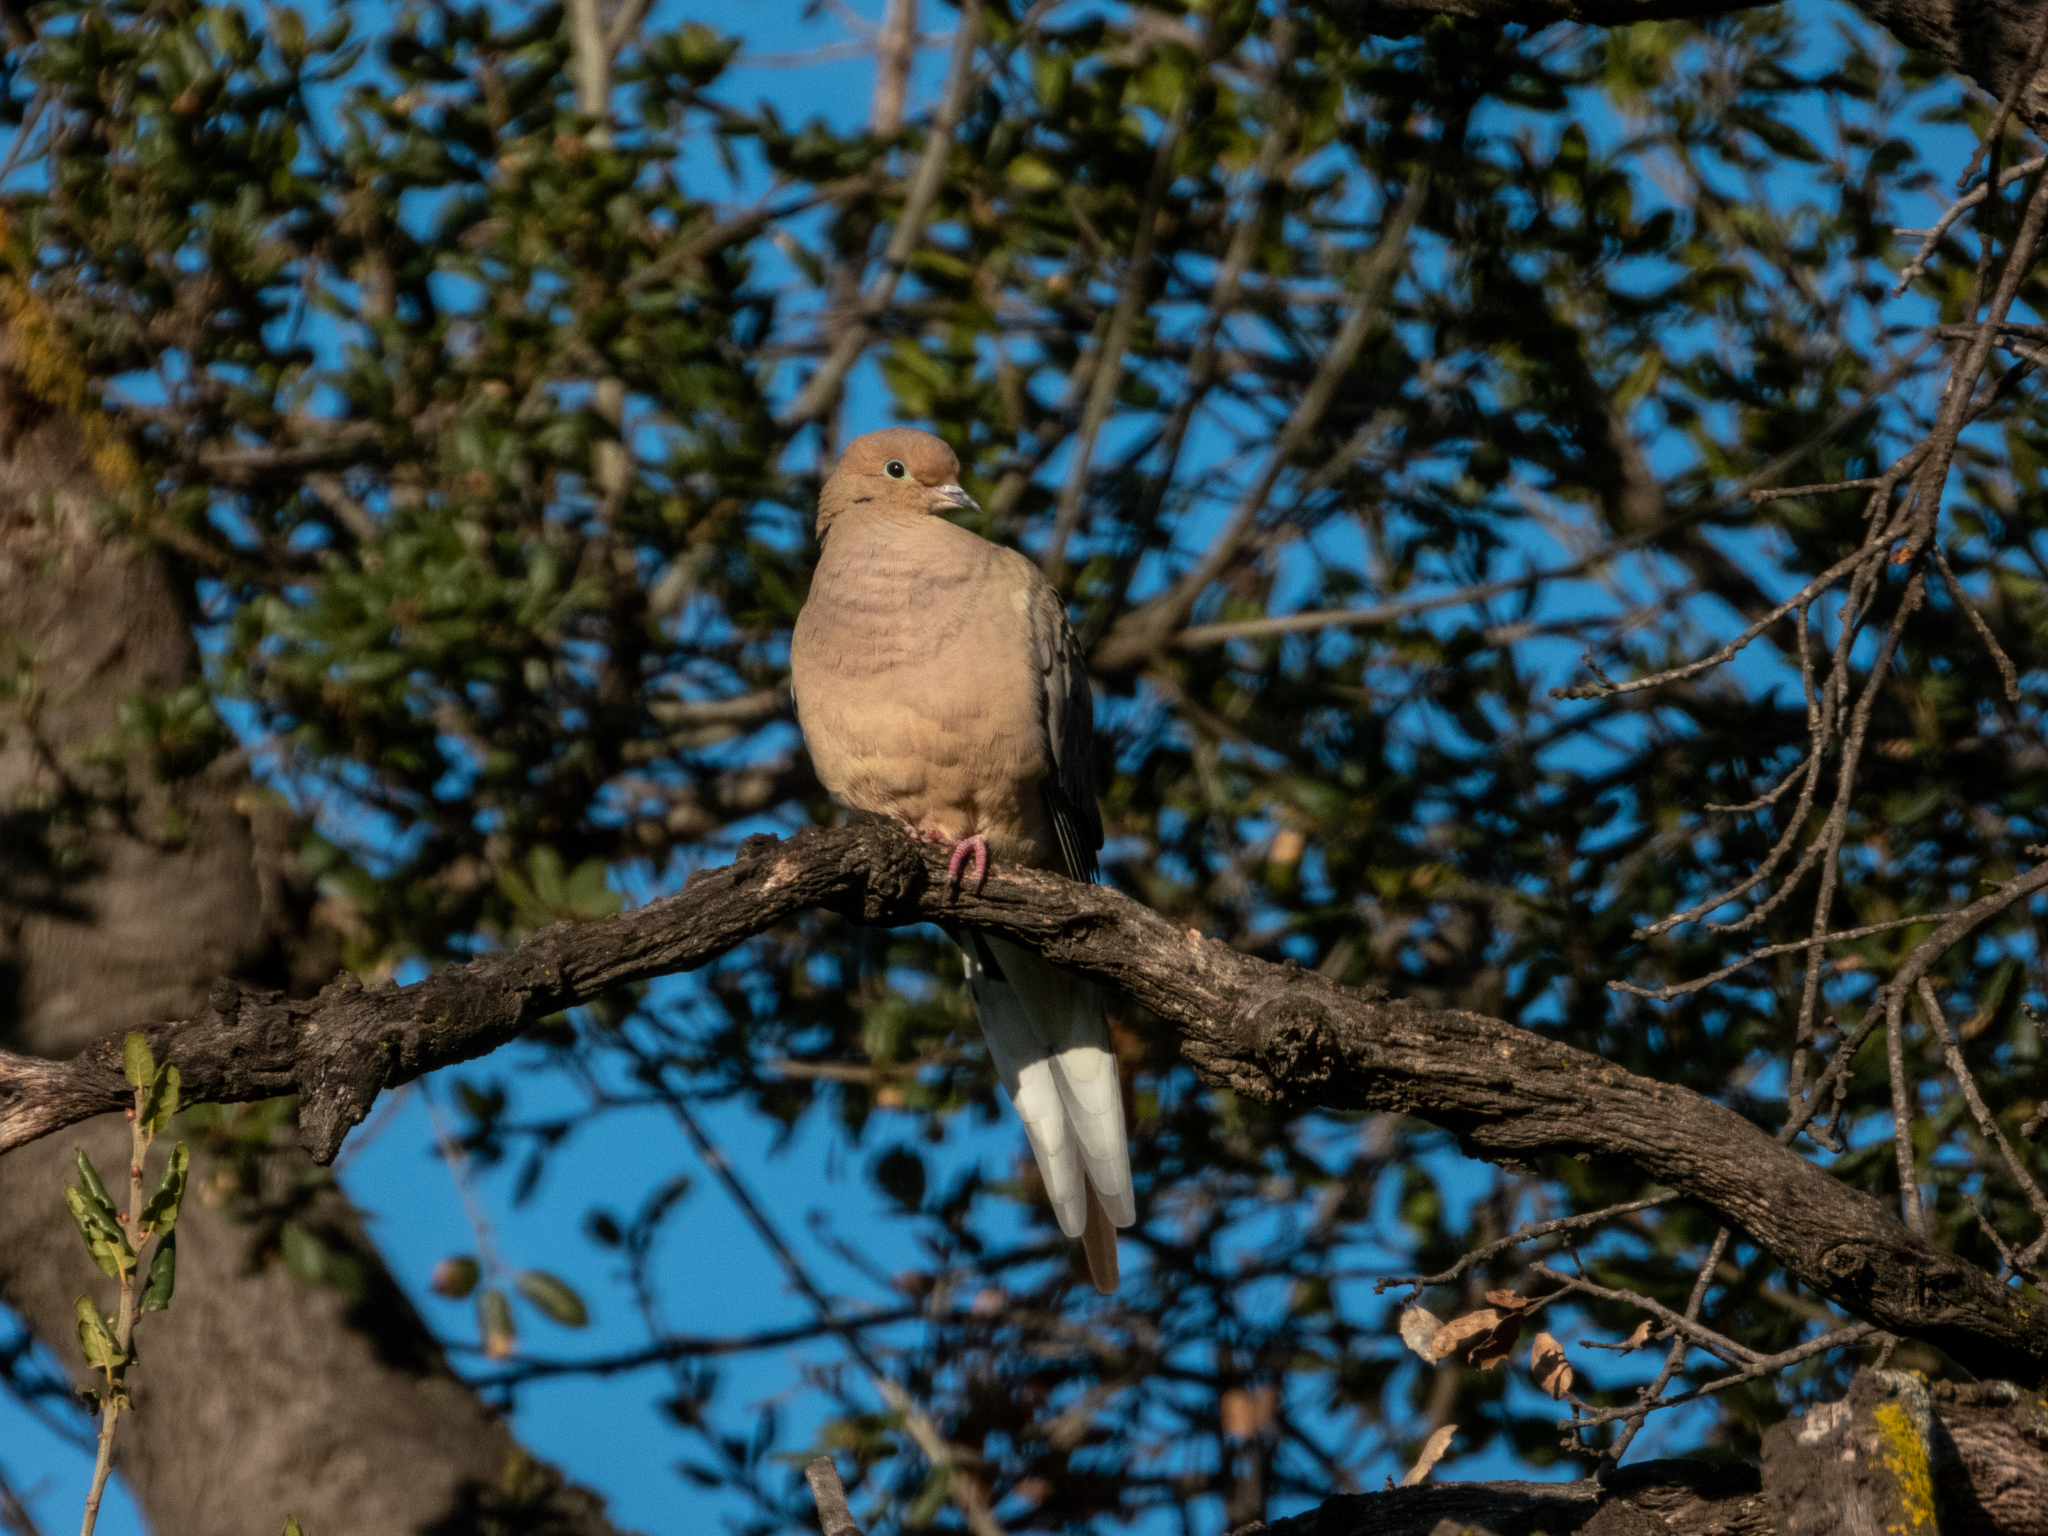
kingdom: Animalia
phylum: Chordata
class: Aves
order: Columbiformes
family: Columbidae
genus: Zenaida
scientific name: Zenaida macroura
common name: Mourning dove
